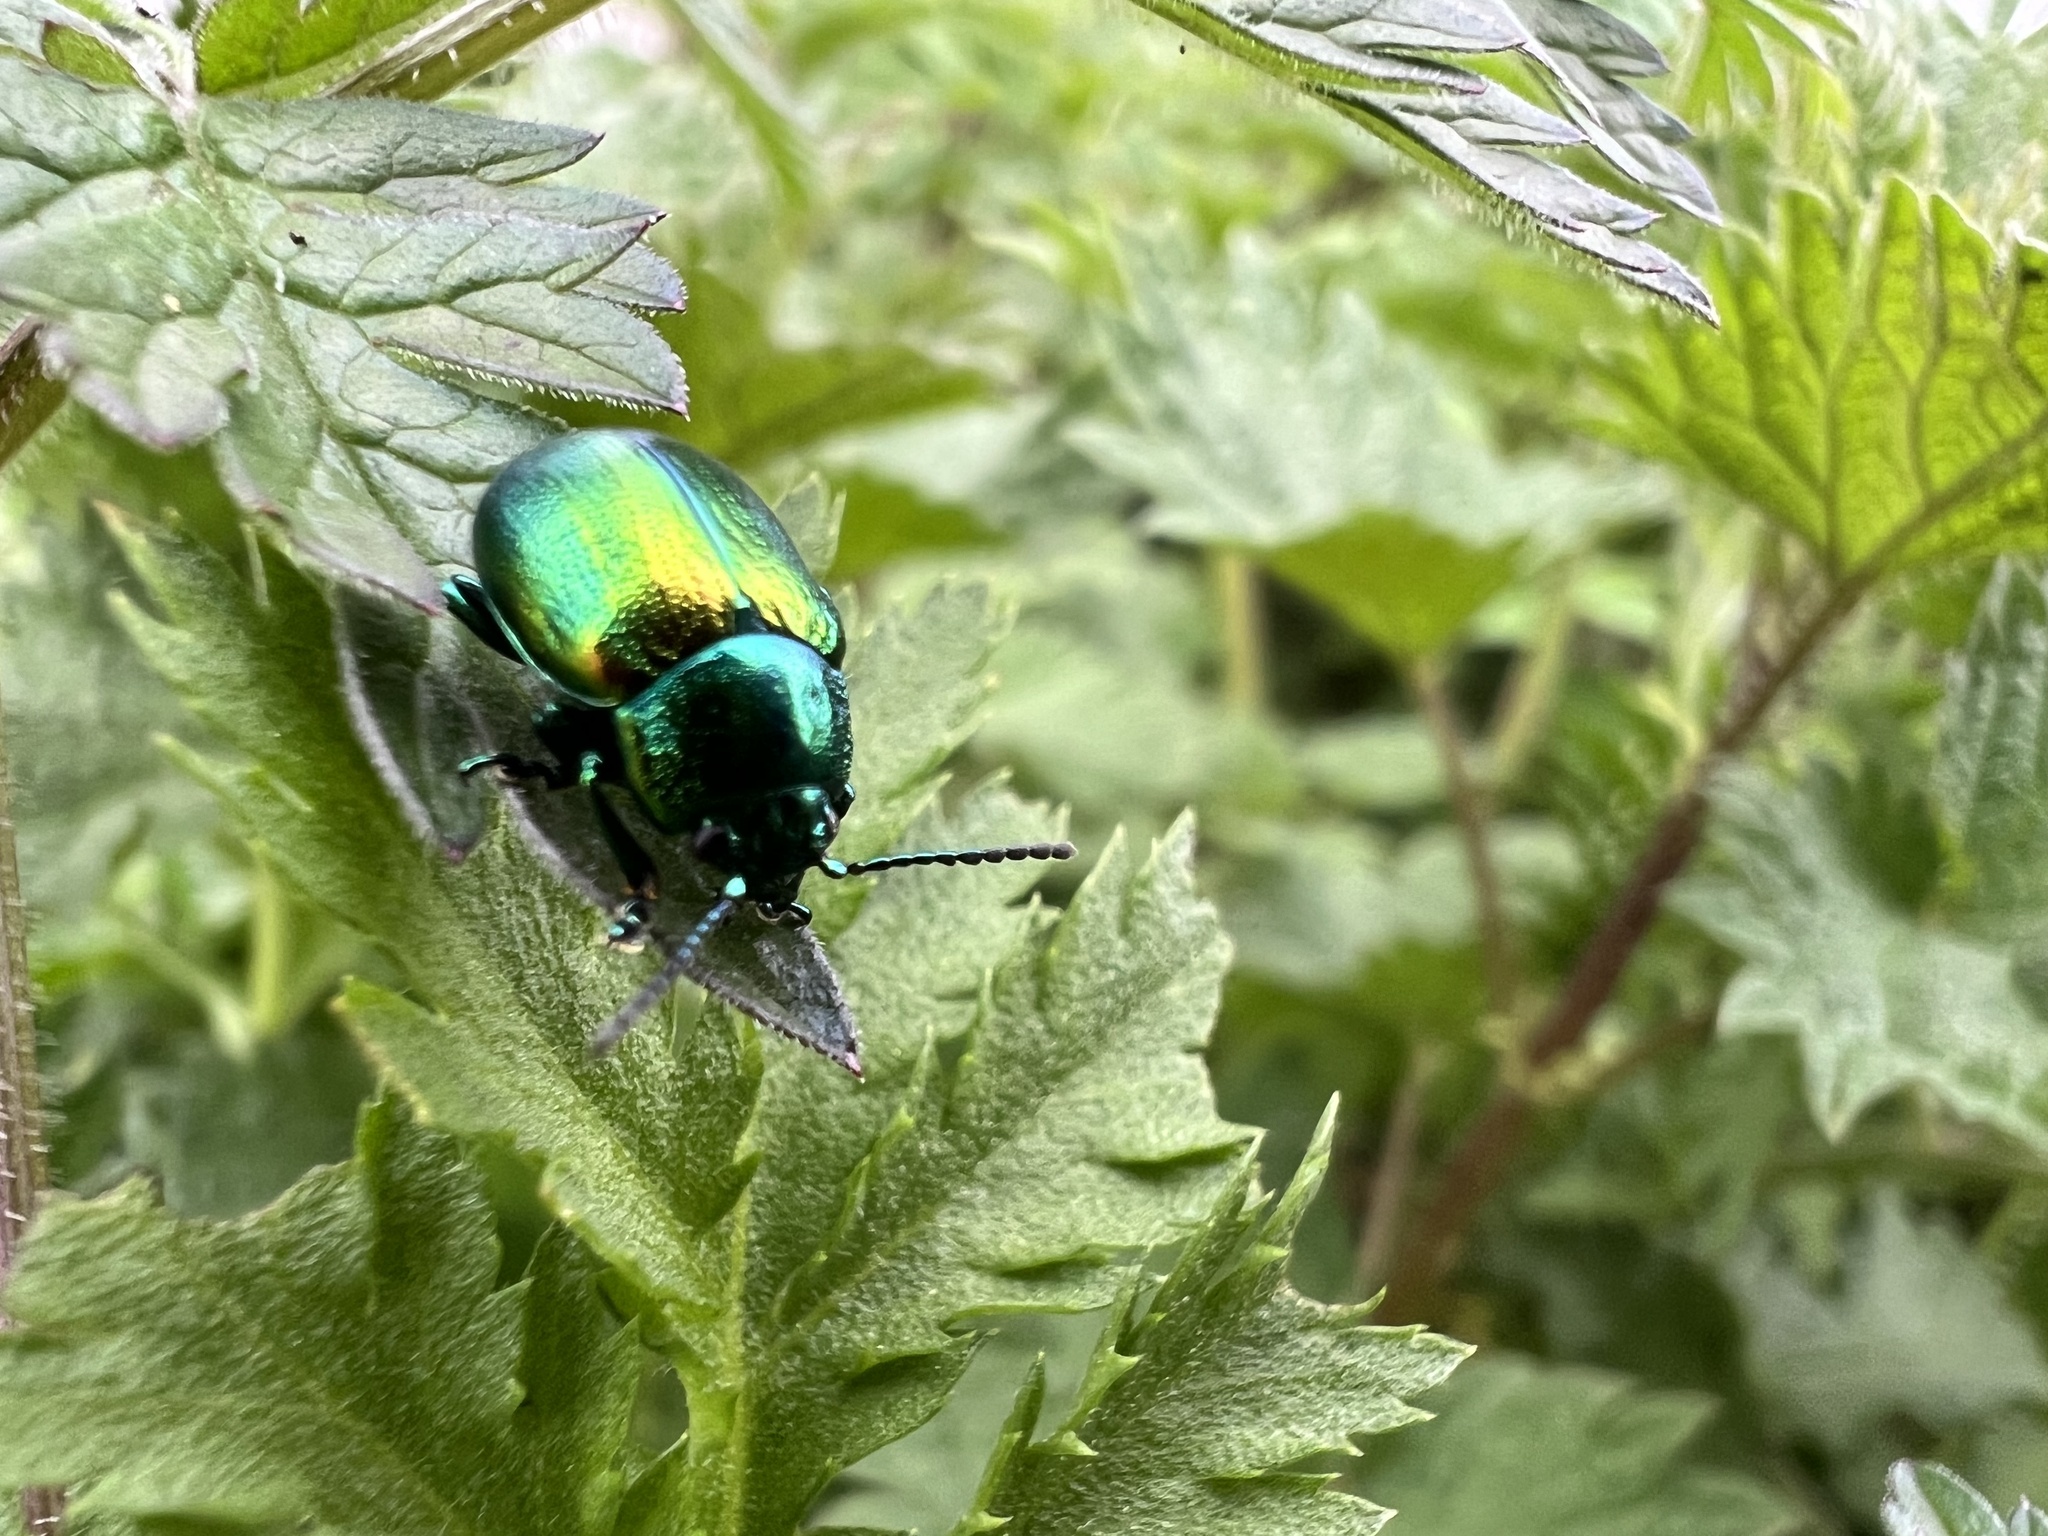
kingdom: Animalia
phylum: Arthropoda
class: Insecta
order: Coleoptera
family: Chrysomelidae
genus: Chrysolina
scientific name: Chrysolina graminis
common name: Tansey beetle
